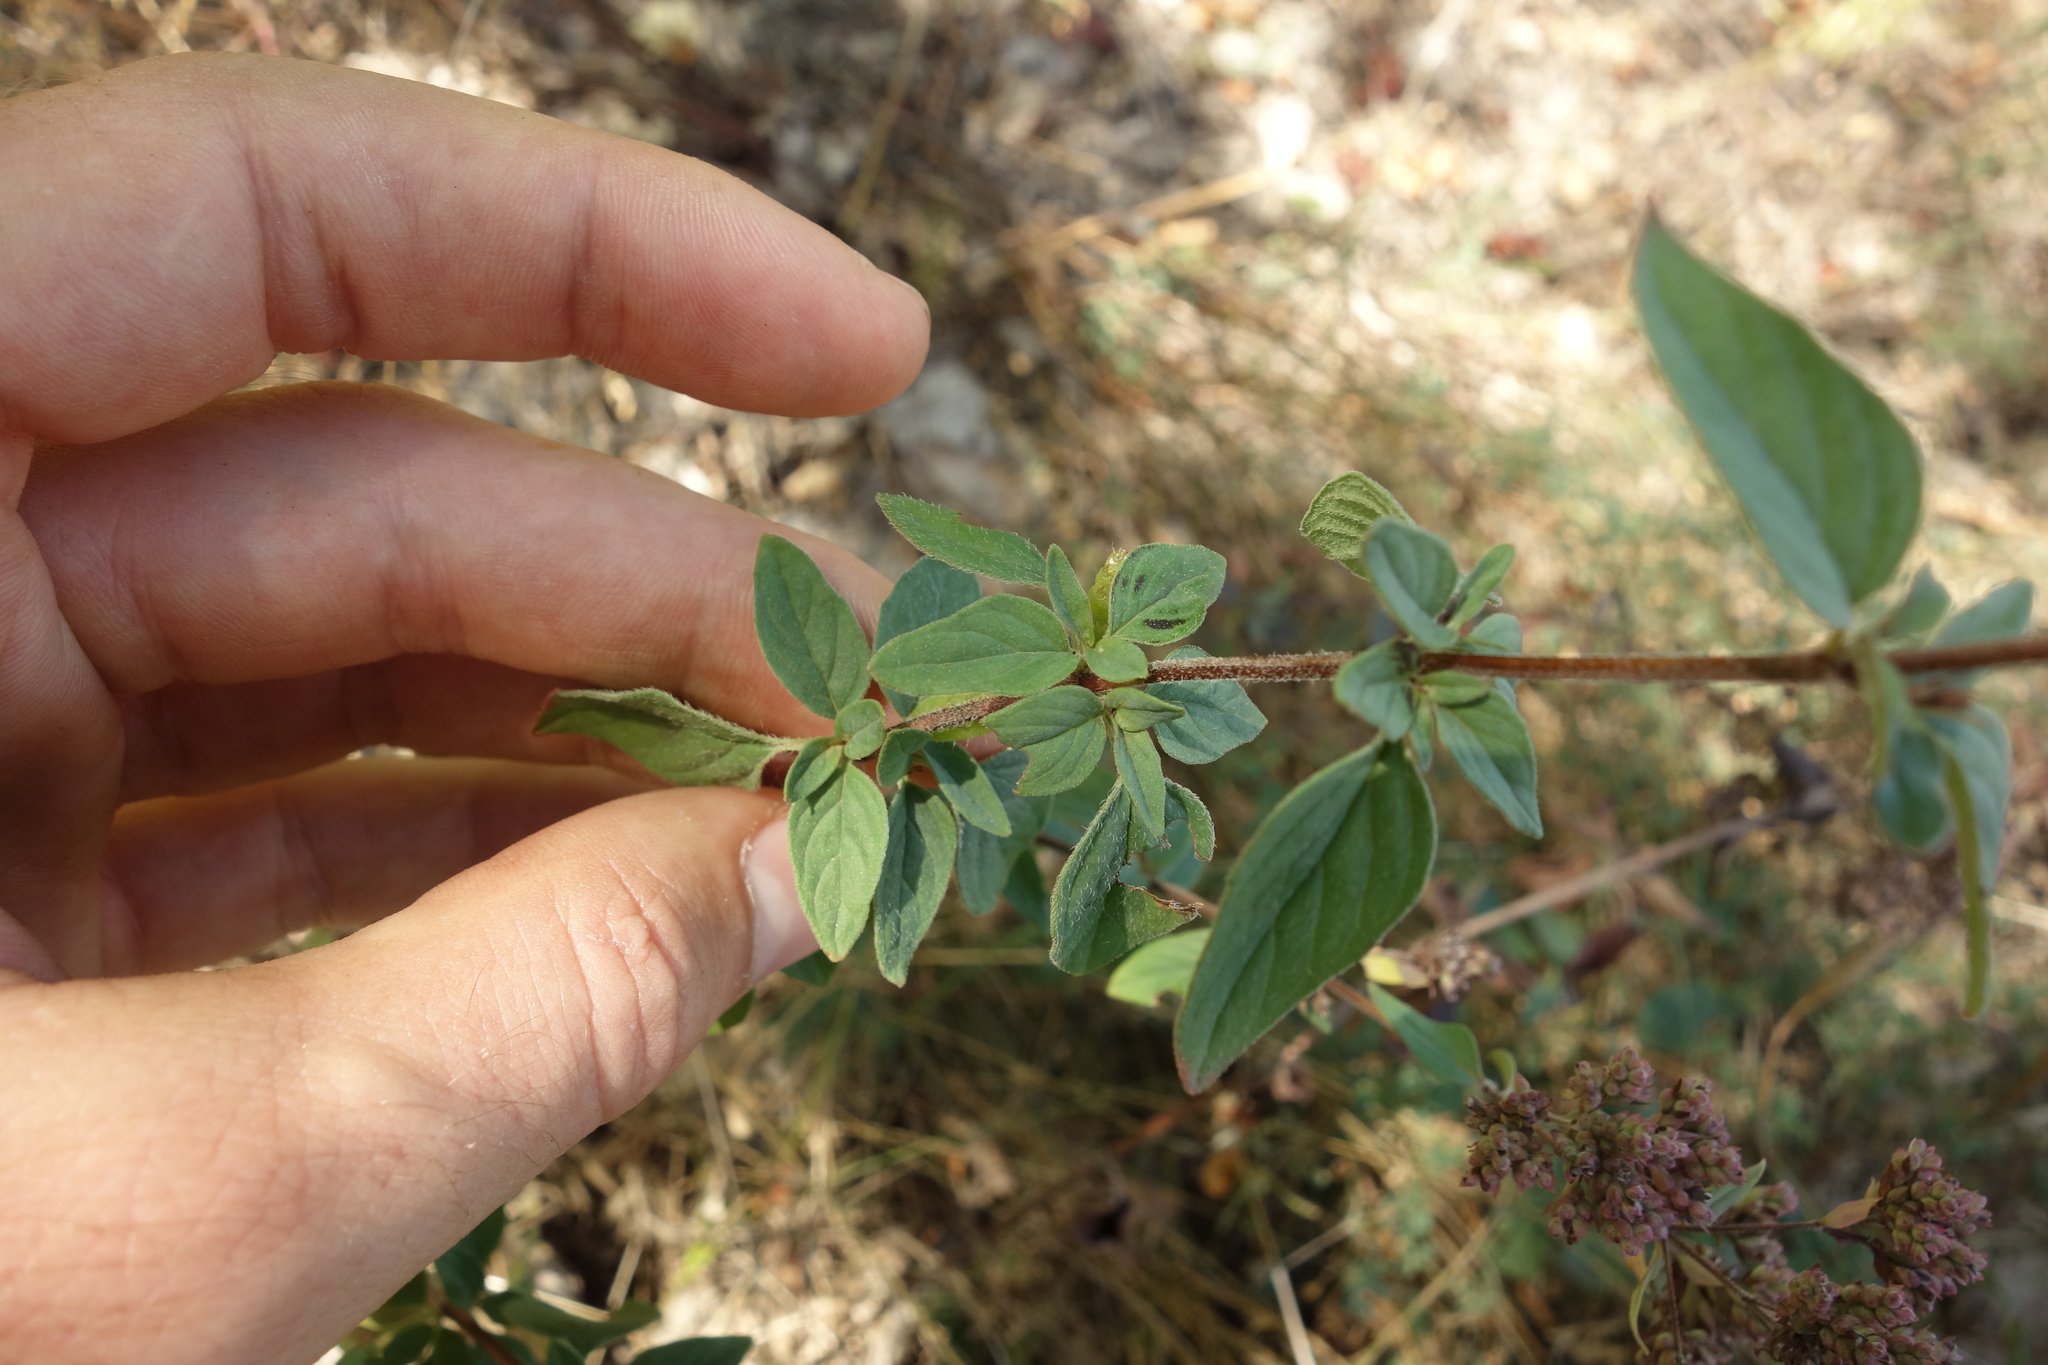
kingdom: Plantae
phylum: Tracheophyta
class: Magnoliopsida
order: Lamiales
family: Lamiaceae
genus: Origanum
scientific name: Origanum vulgare
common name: Wild marjoram
